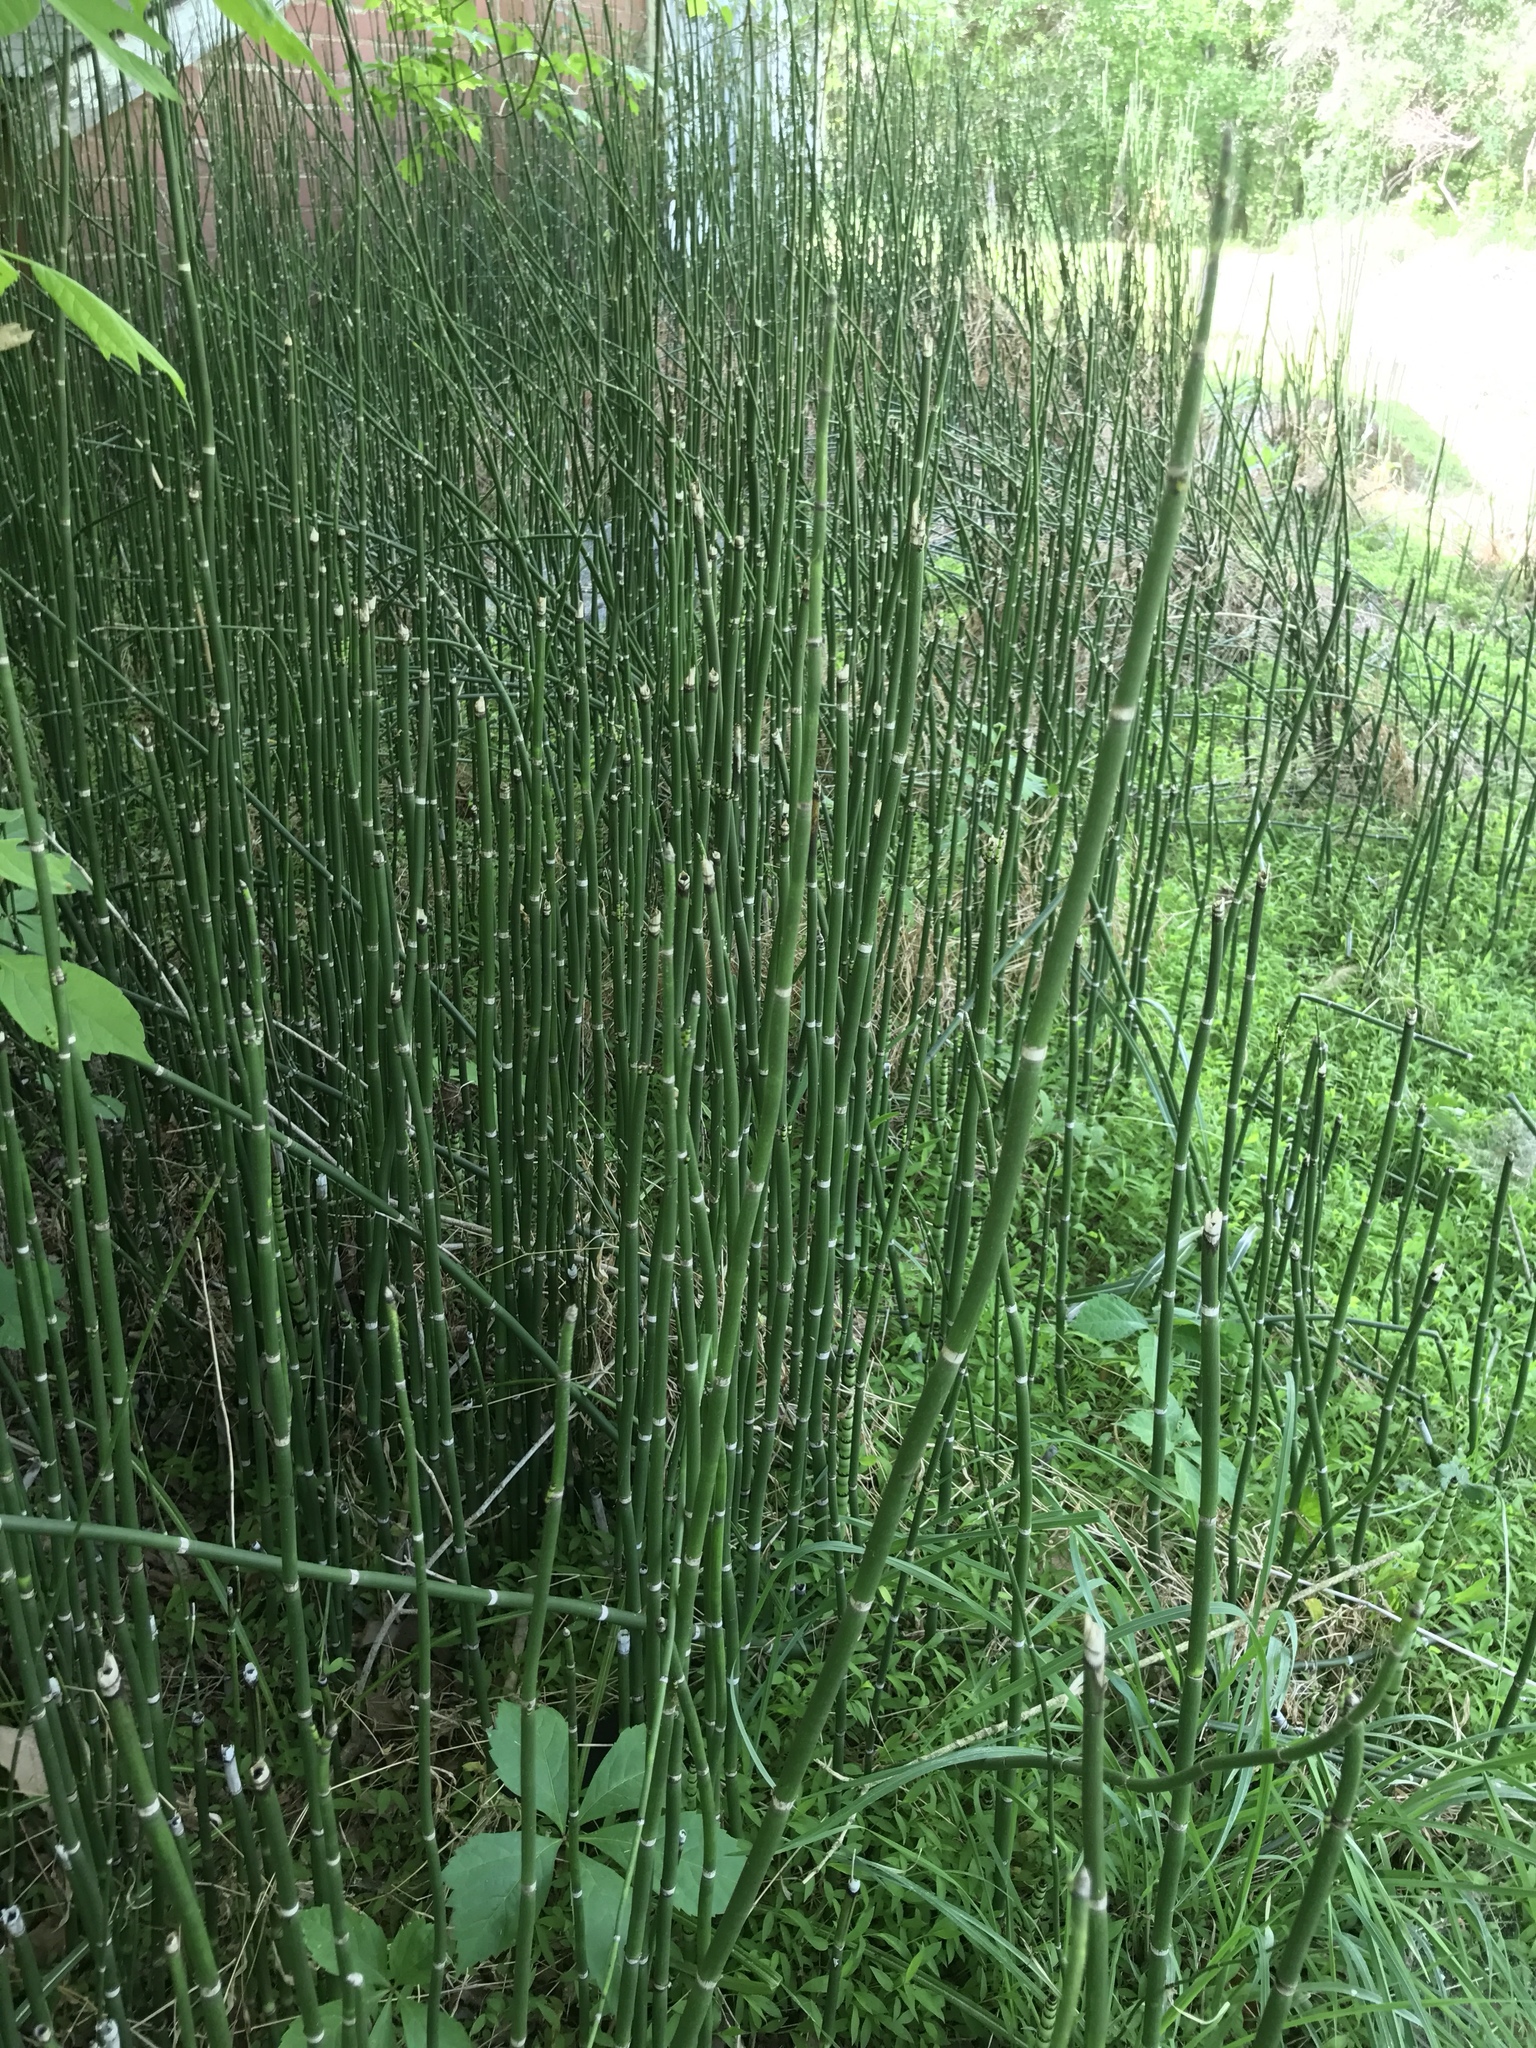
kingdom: Plantae
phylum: Tracheophyta
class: Polypodiopsida
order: Equisetales
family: Equisetaceae
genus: Equisetum
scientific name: Equisetum hyemale
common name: Rough horsetail
